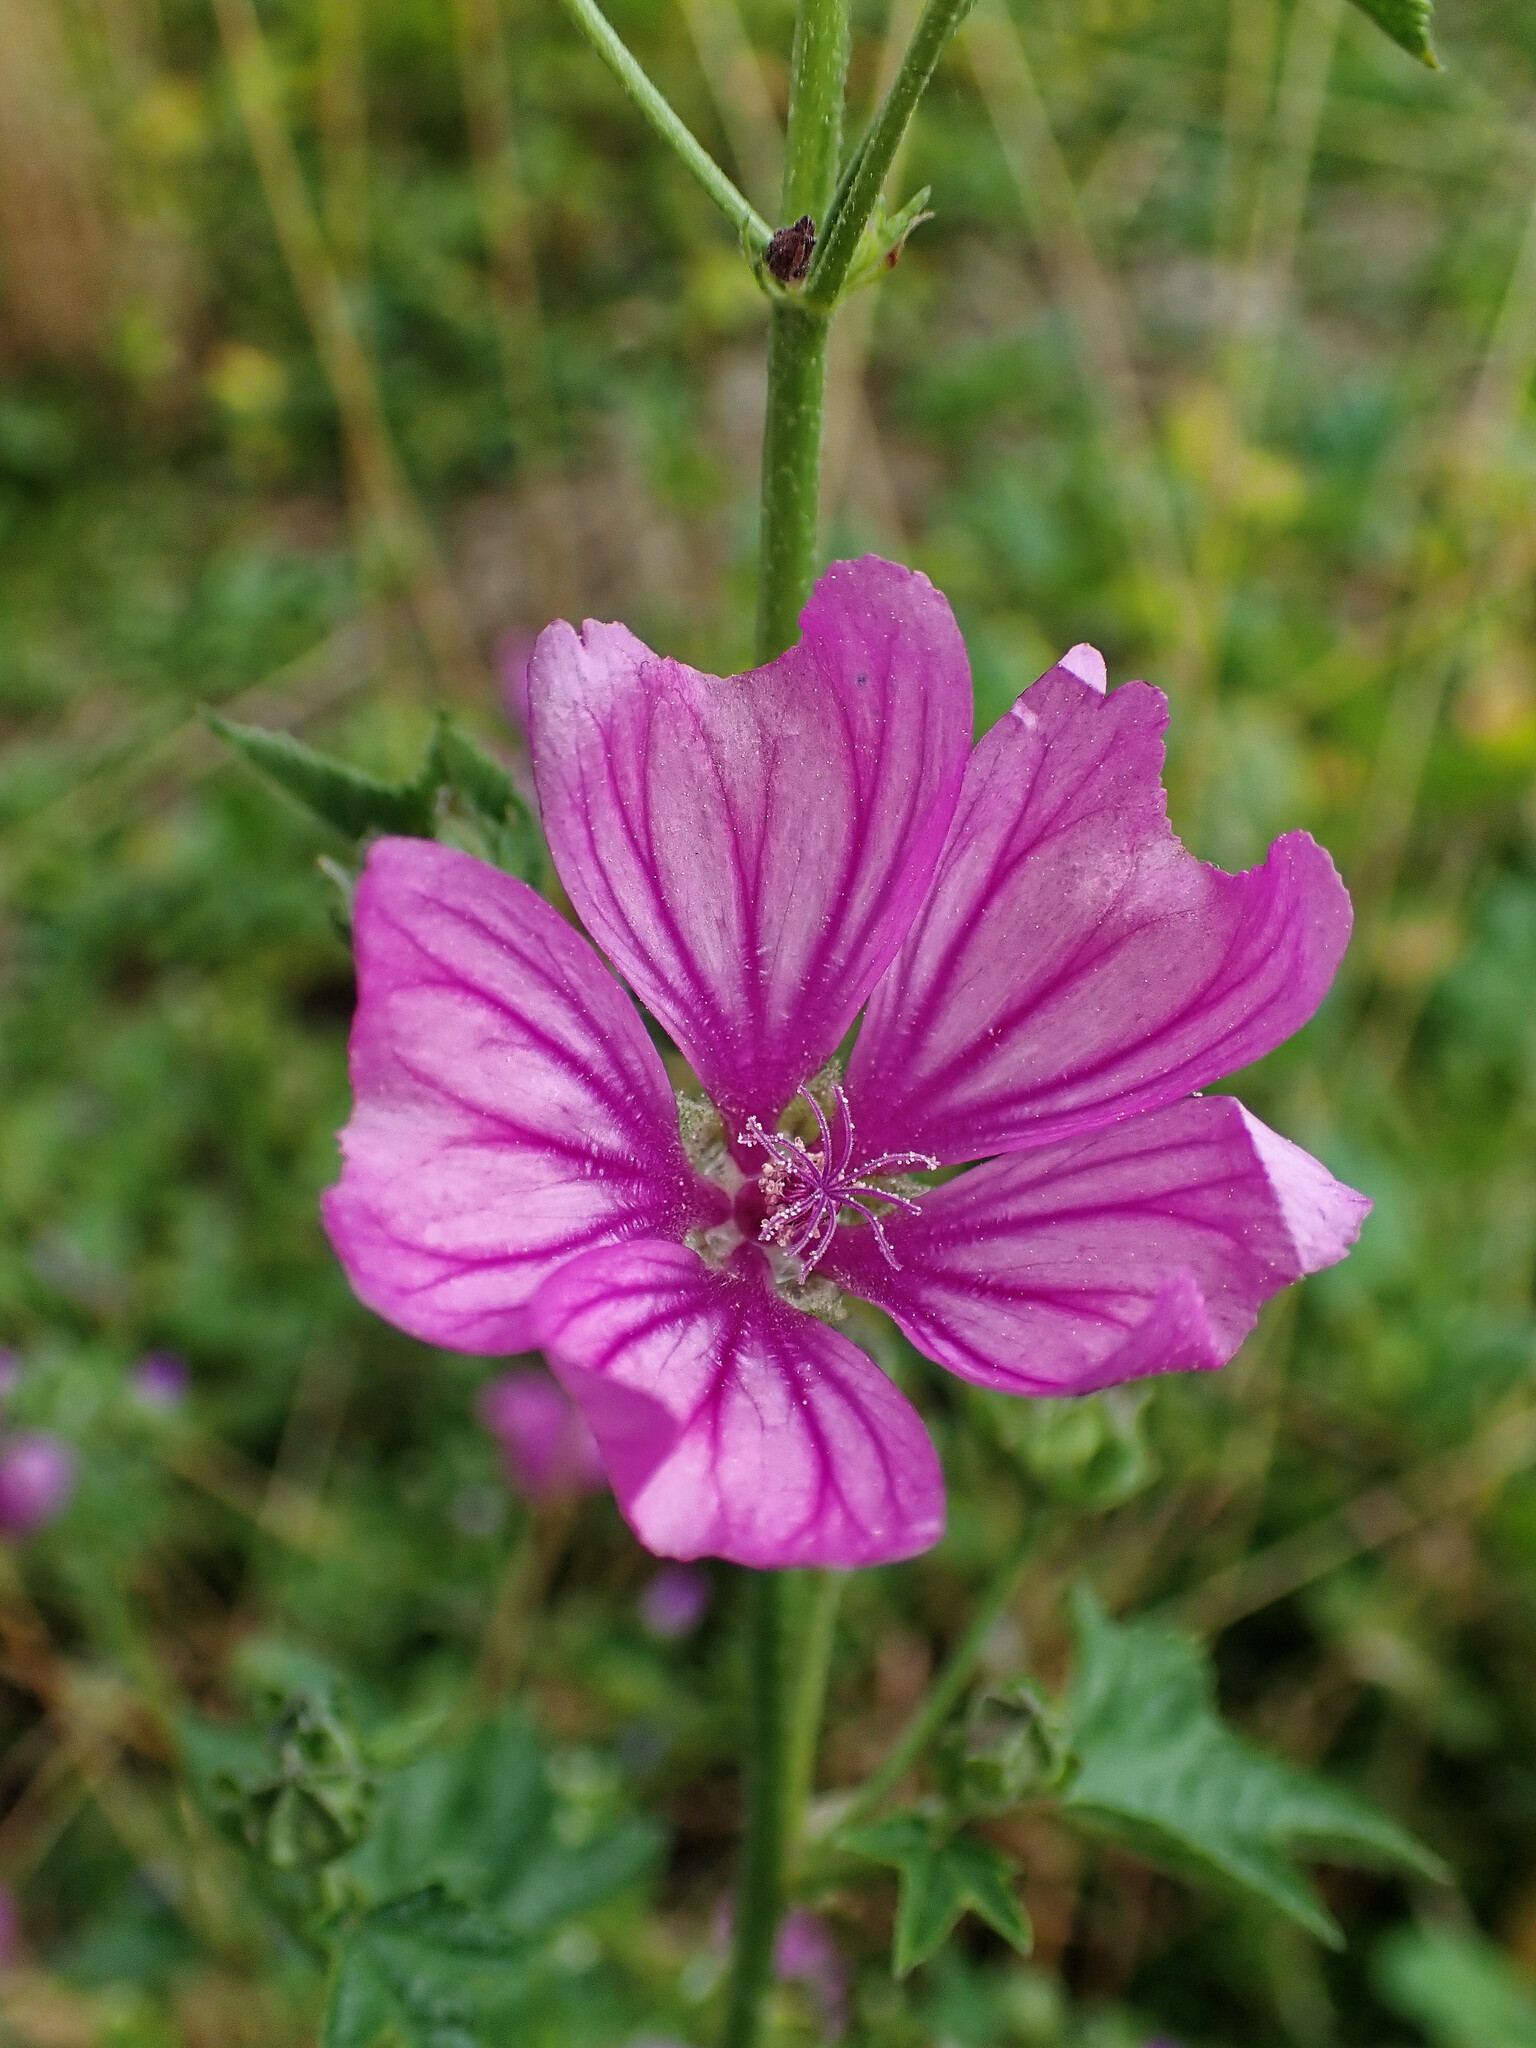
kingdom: Plantae
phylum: Tracheophyta
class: Magnoliopsida
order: Malvales
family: Malvaceae
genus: Malva
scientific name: Malva sylvestris
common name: Common mallow
